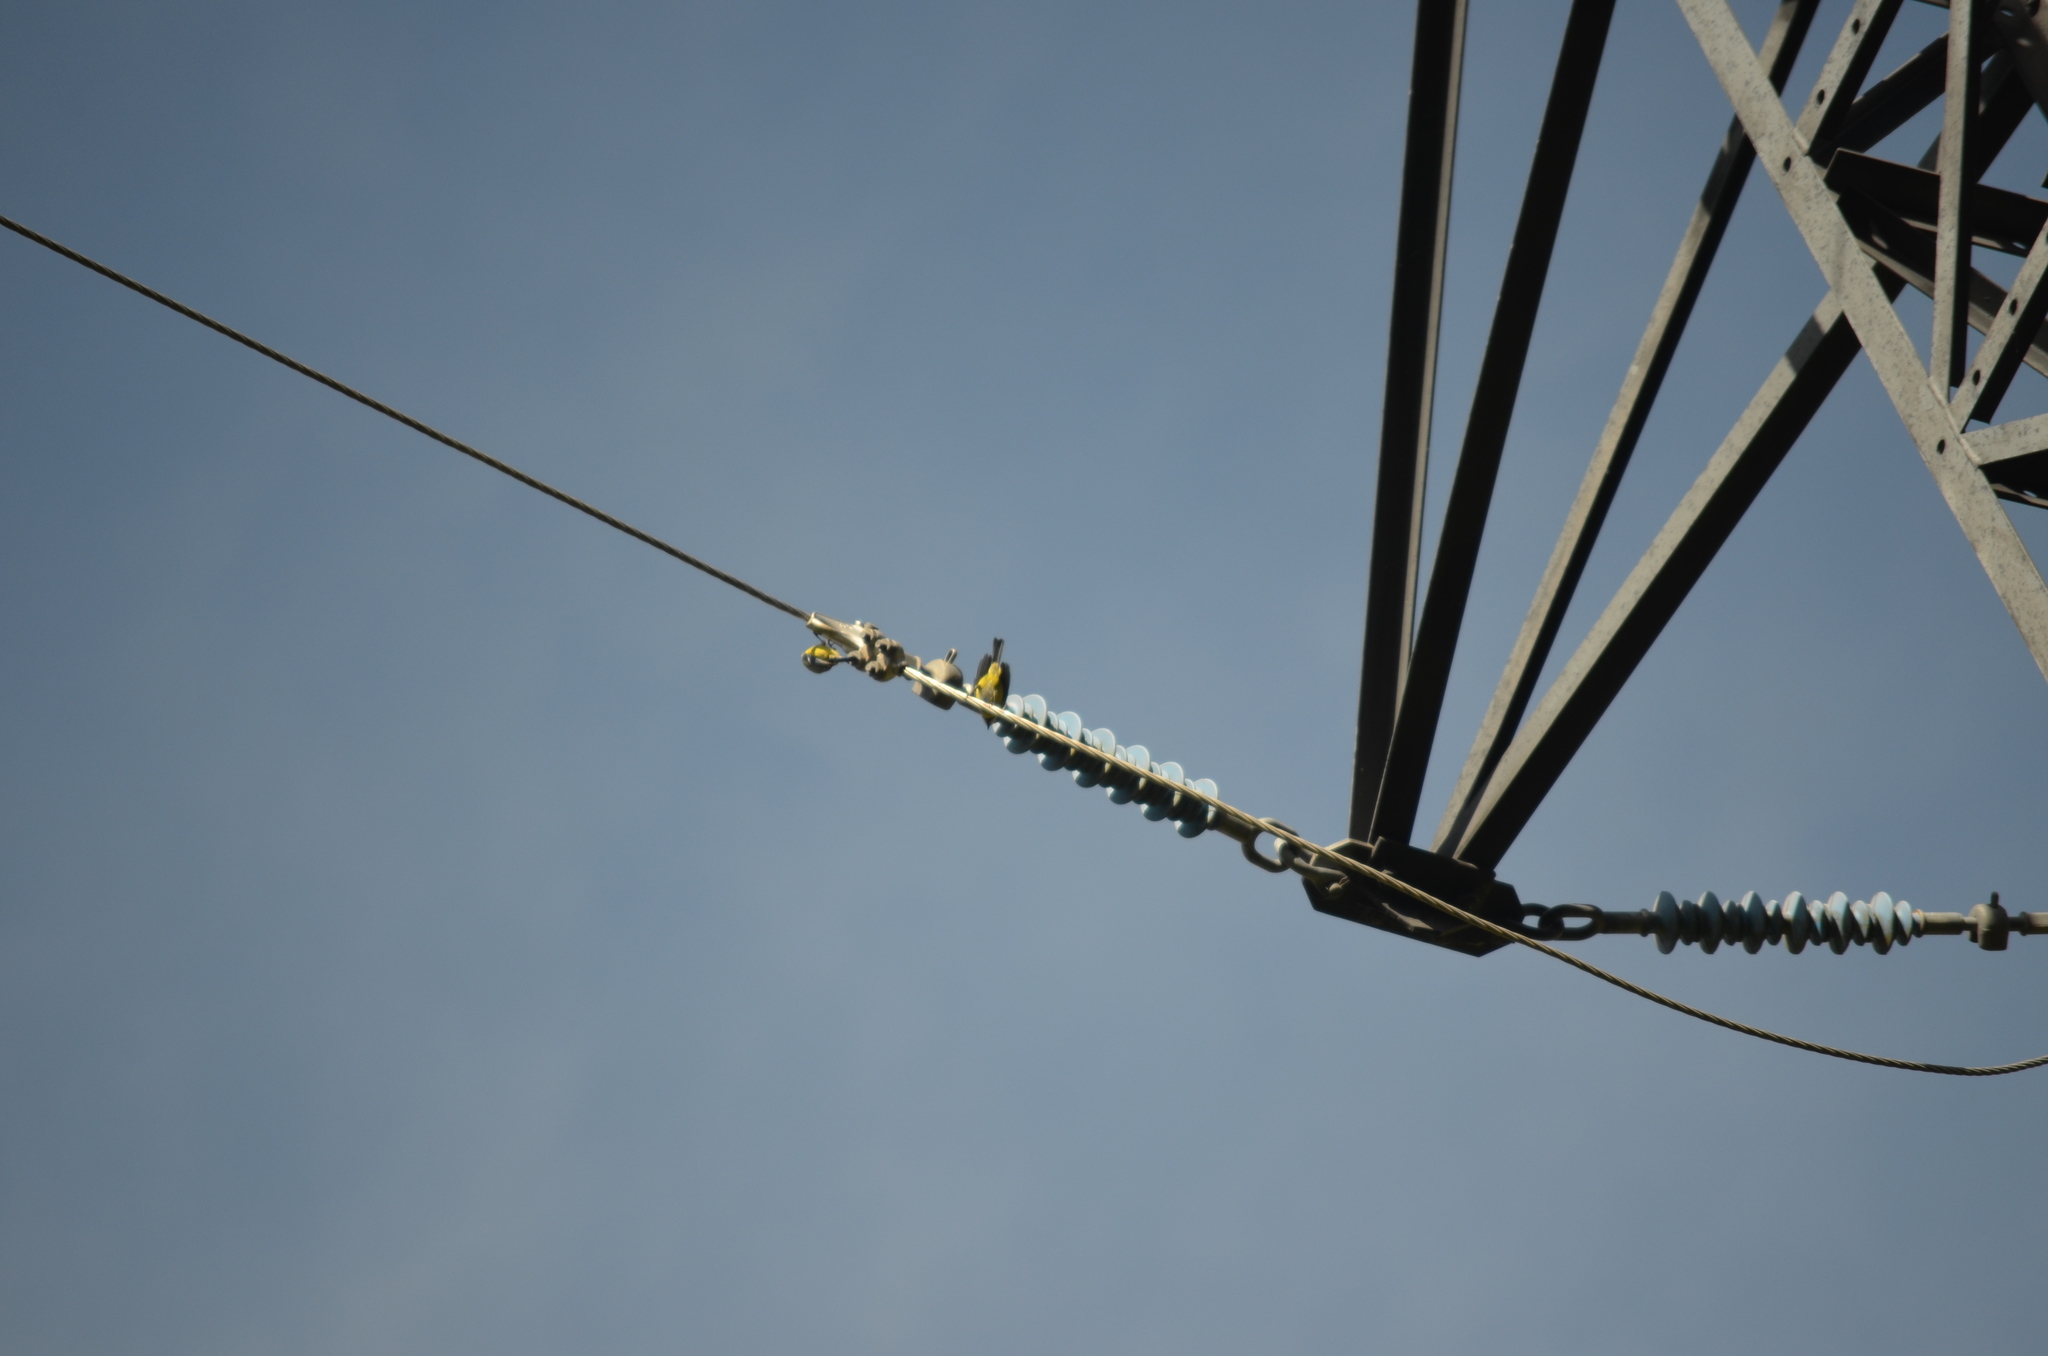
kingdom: Animalia
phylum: Chordata
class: Aves
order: Passeriformes
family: Paridae
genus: Cyanistes
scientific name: Cyanistes caeruleus
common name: Eurasian blue tit
